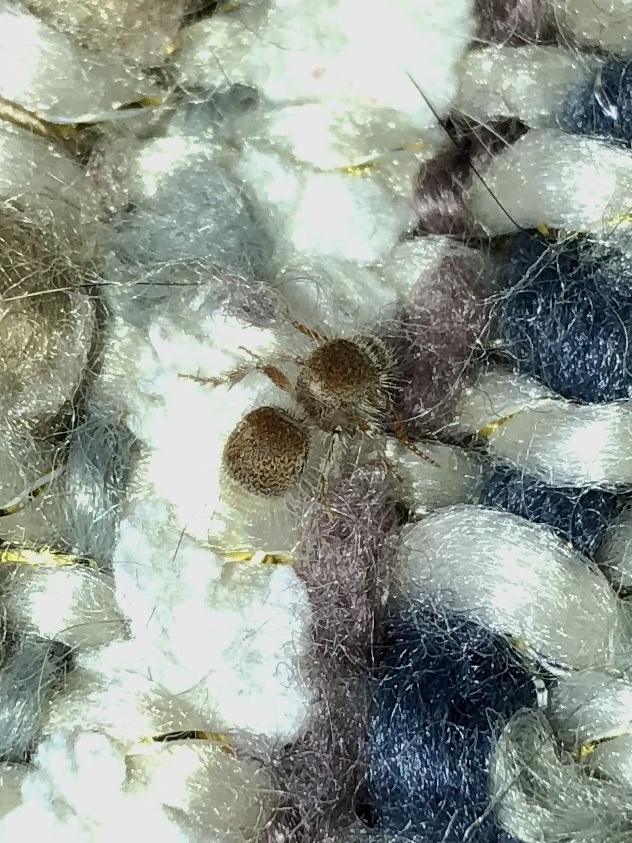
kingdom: Animalia
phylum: Arthropoda
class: Insecta
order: Hymenoptera
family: Mutillidae
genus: Odontophotopsis
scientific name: Odontophotopsis
